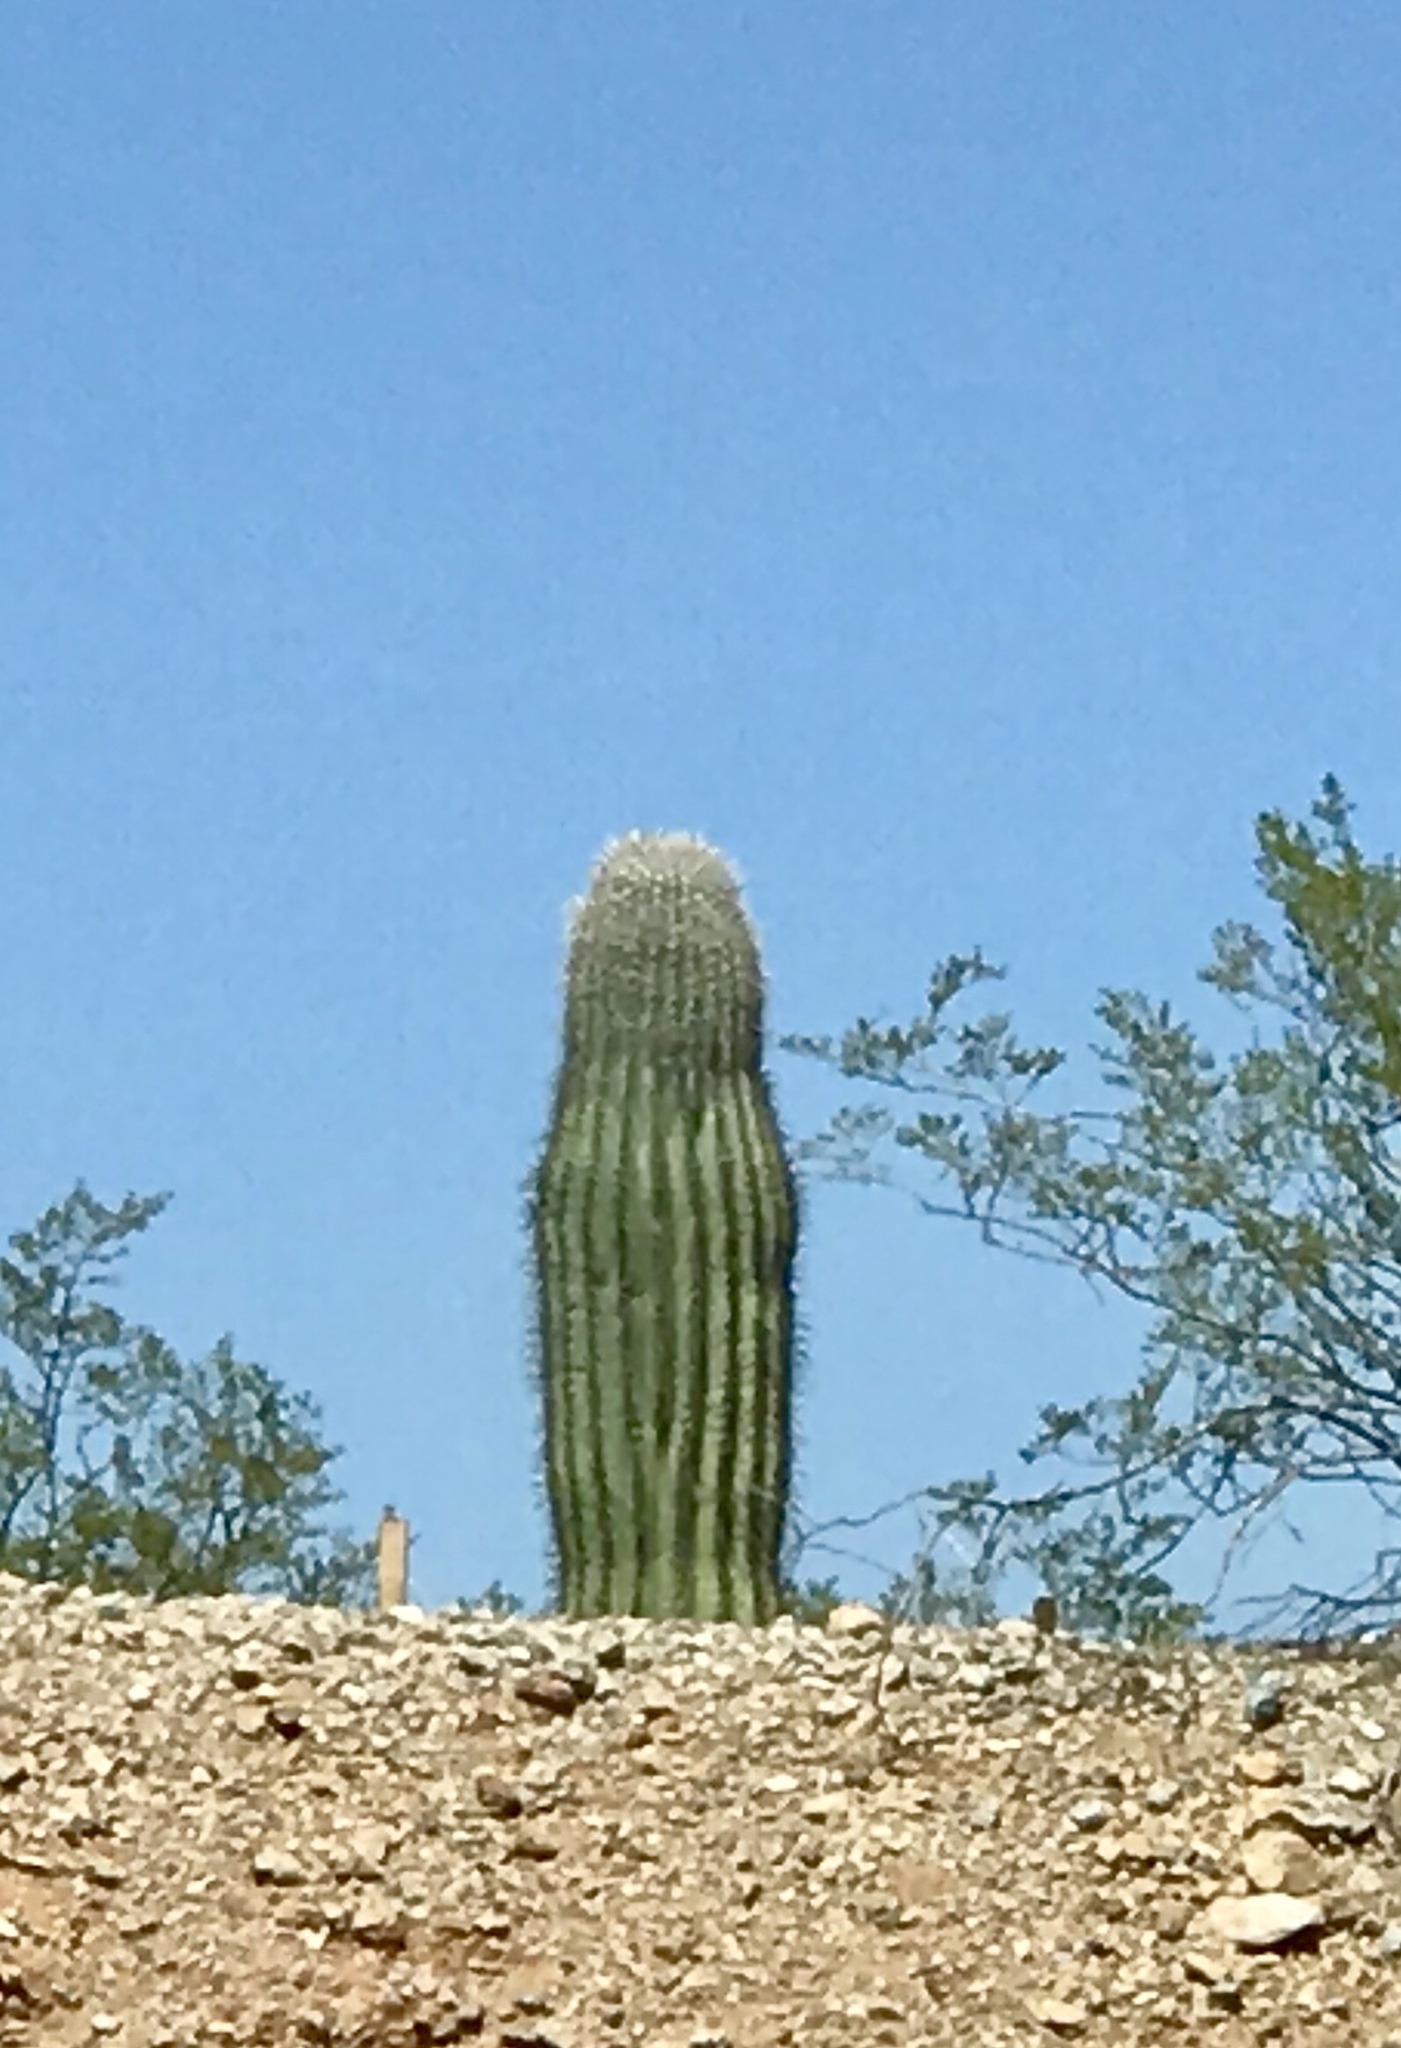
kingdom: Plantae
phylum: Tracheophyta
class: Magnoliopsida
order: Caryophyllales
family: Cactaceae
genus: Carnegiea
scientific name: Carnegiea gigantea
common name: Saguaro
